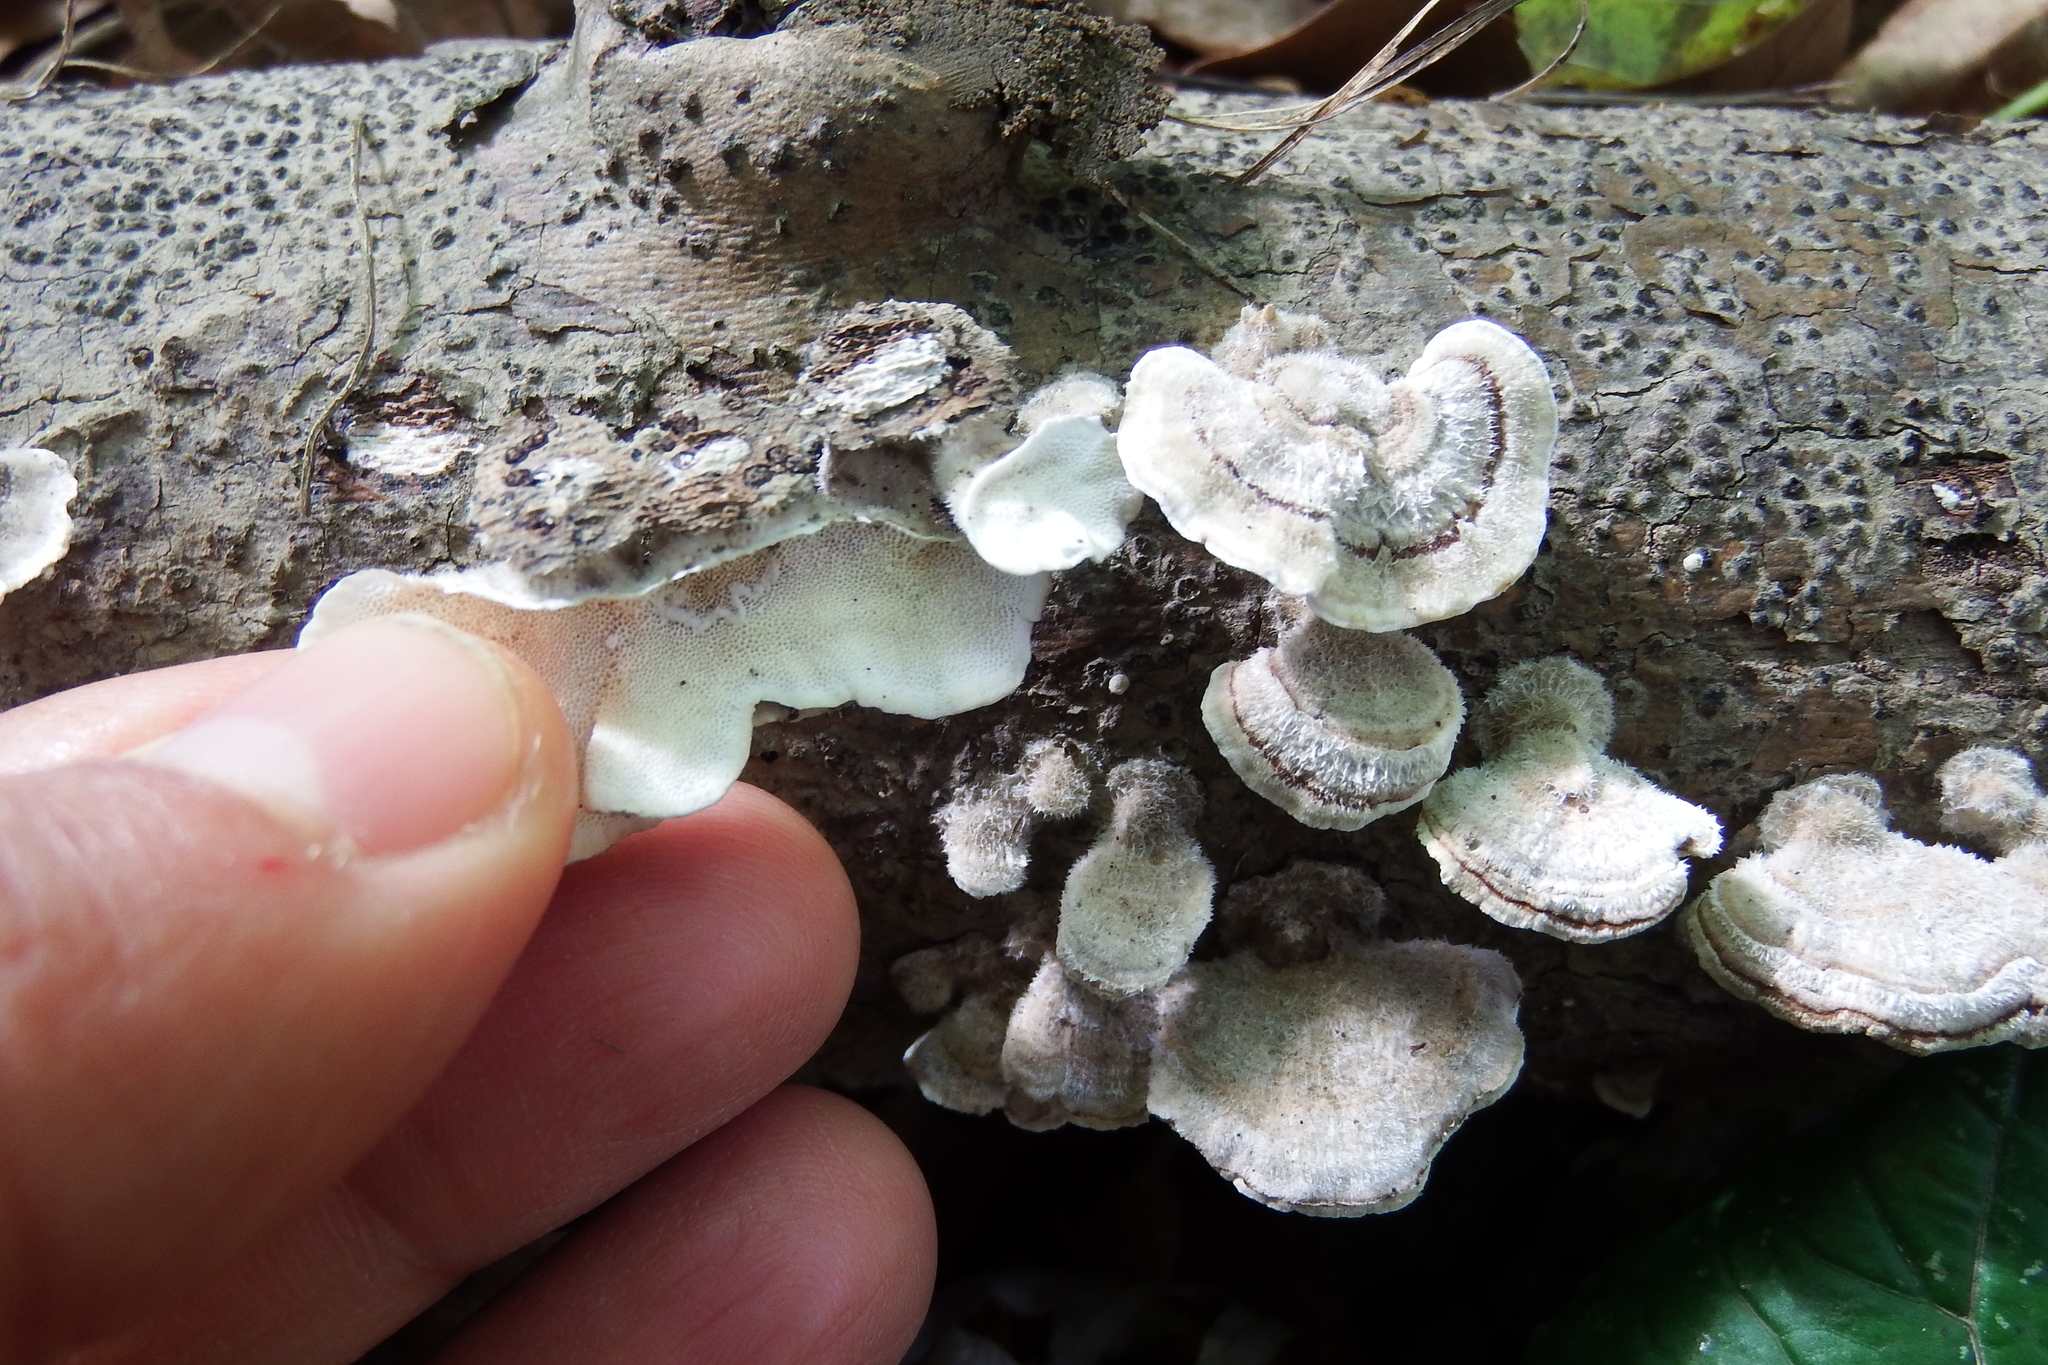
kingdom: Fungi
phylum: Basidiomycota
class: Agaricomycetes
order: Polyporales
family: Polyporaceae
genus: Poronidulus
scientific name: Poronidulus conchifer
